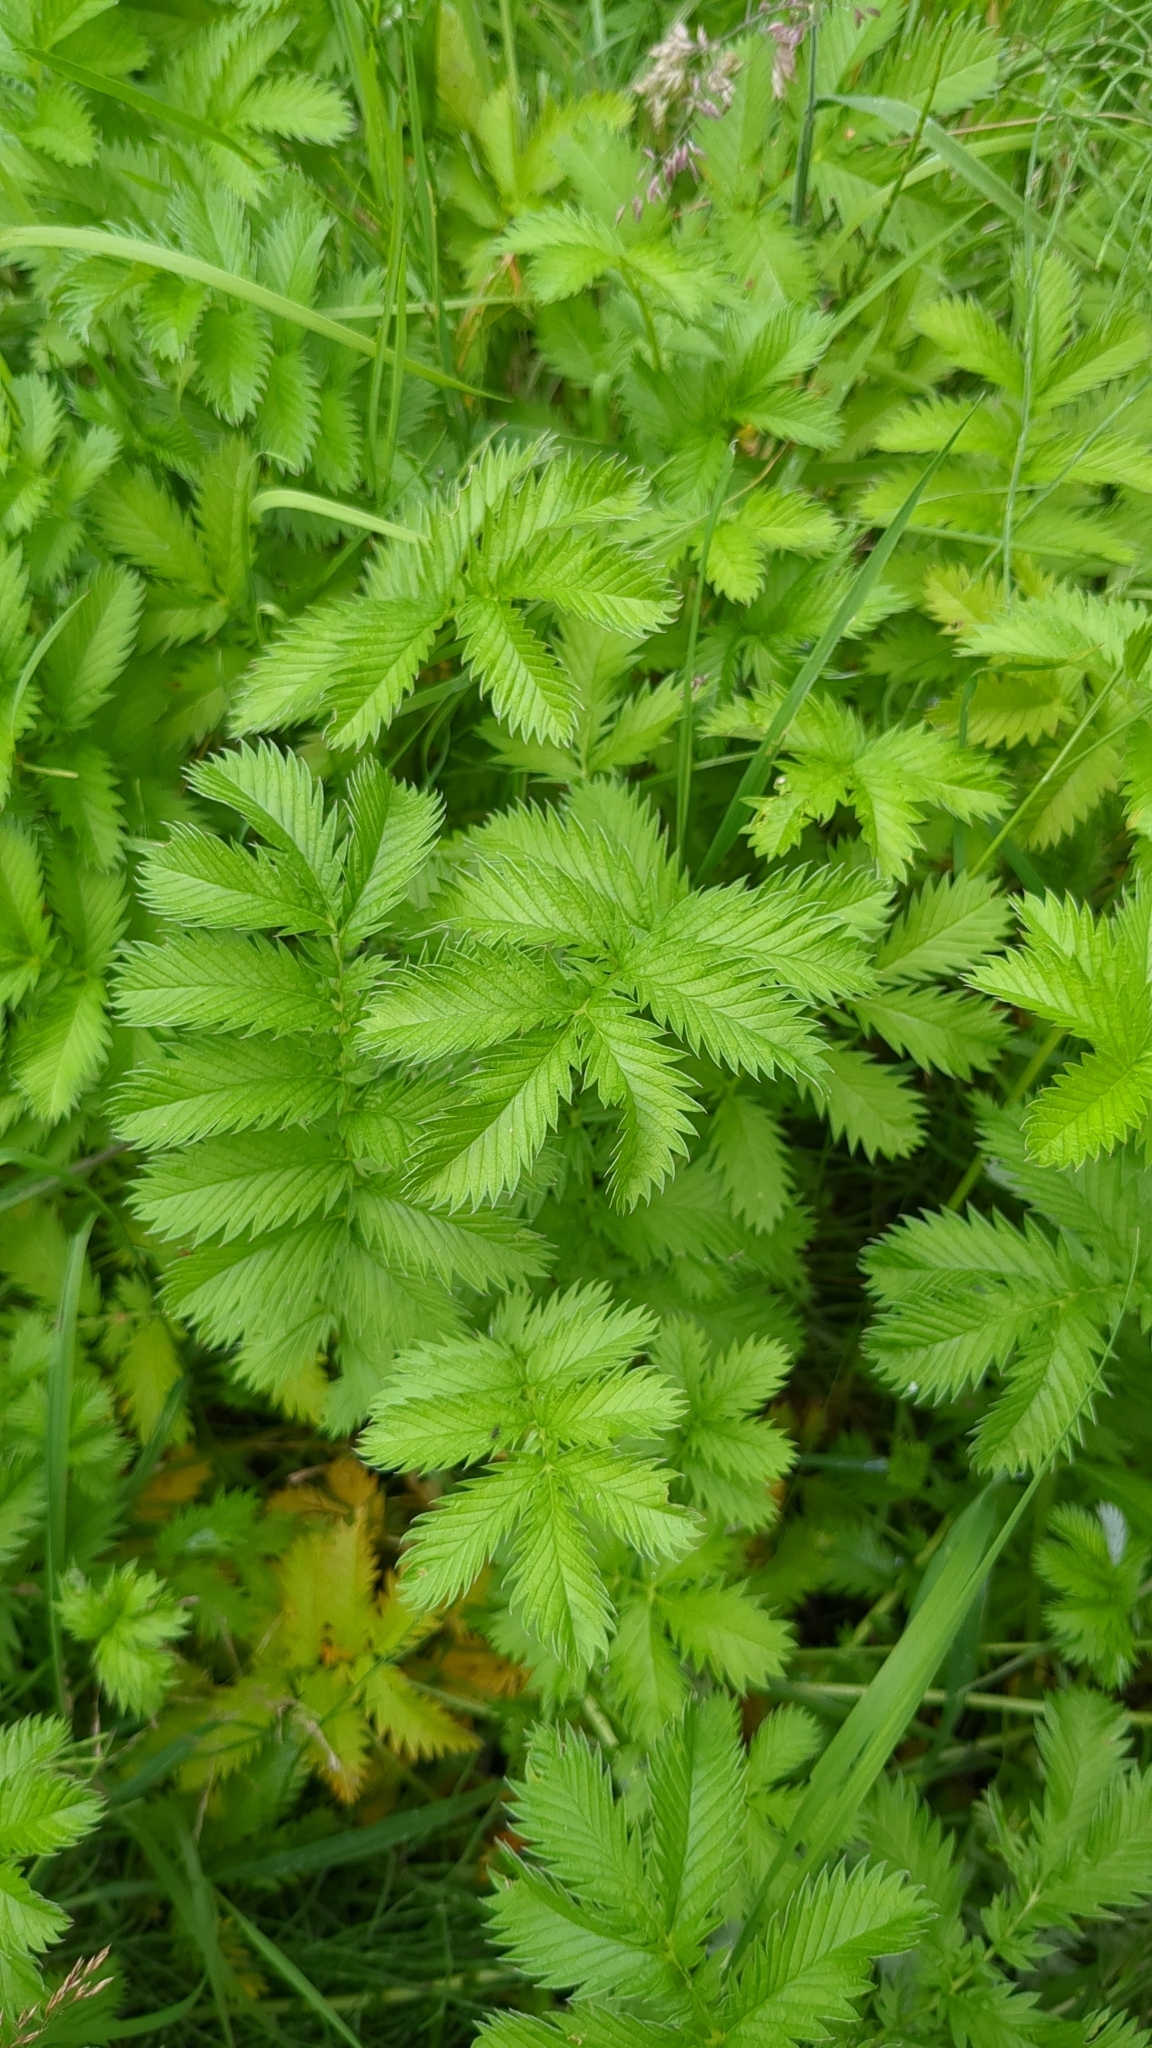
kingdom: Plantae
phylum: Tracheophyta
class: Magnoliopsida
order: Rosales
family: Rosaceae
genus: Argentina
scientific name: Argentina anserina
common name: Common silverweed
